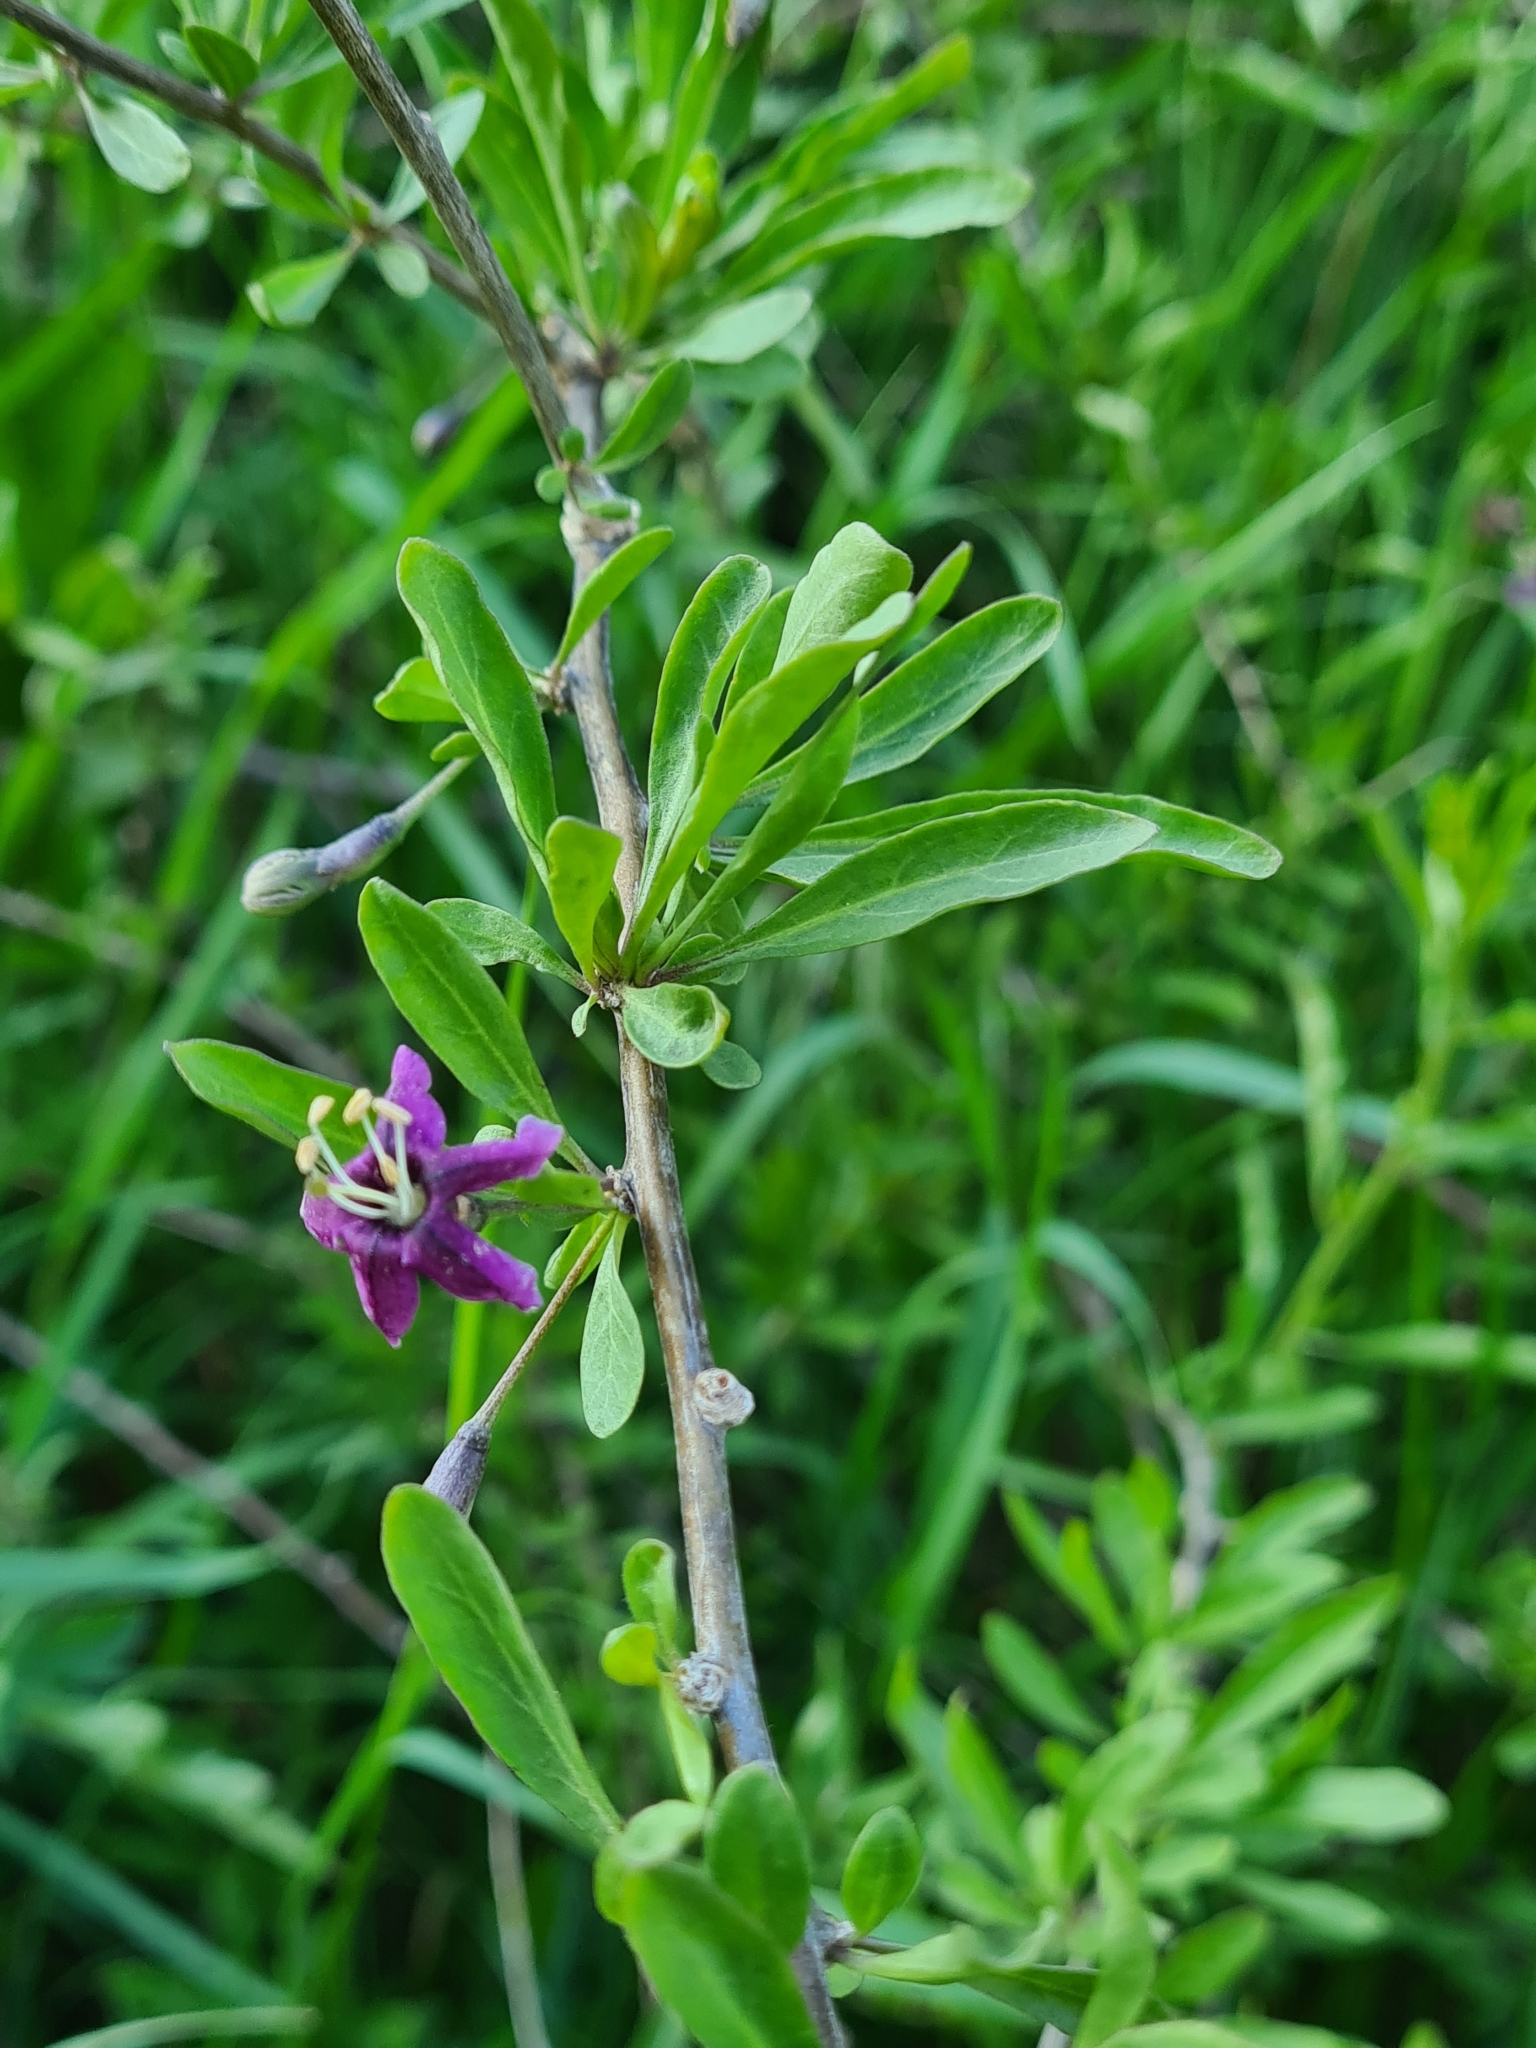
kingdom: Plantae
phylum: Tracheophyta
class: Magnoliopsida
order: Solanales
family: Solanaceae
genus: Lycium
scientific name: Lycium barbarum
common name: Duke of argyll's teaplant
